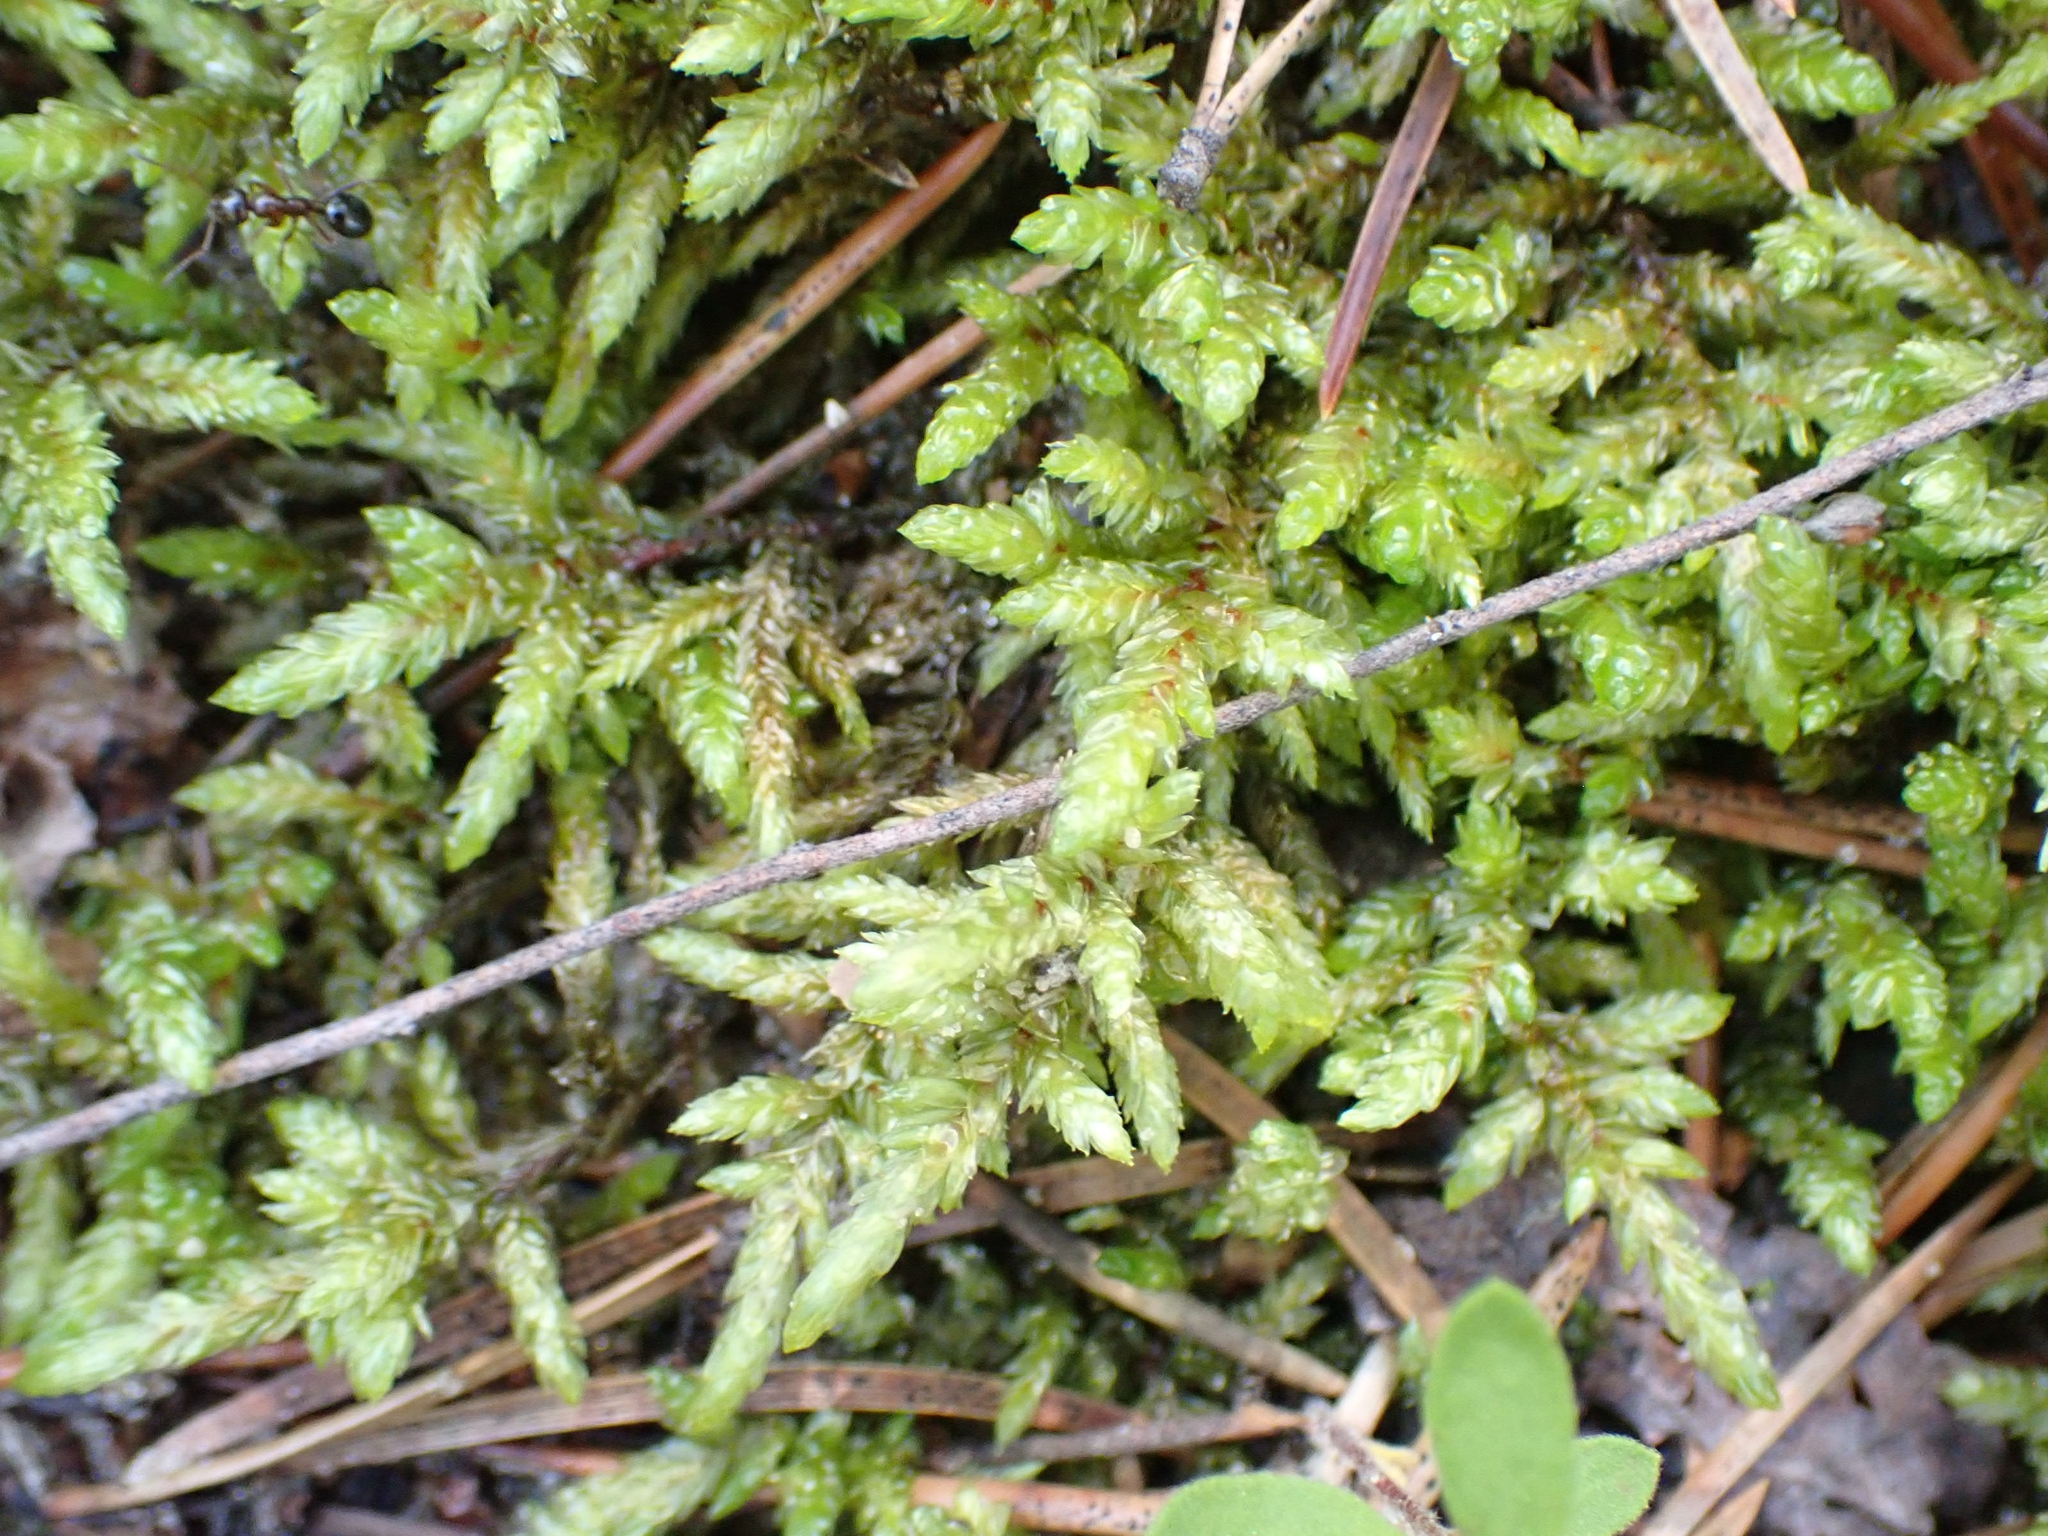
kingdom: Plantae
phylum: Bryophyta
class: Bryopsida
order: Hypnales
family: Hylocomiaceae
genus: Pleurozium
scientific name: Pleurozium schreberi
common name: Red-stemmed feather moss
